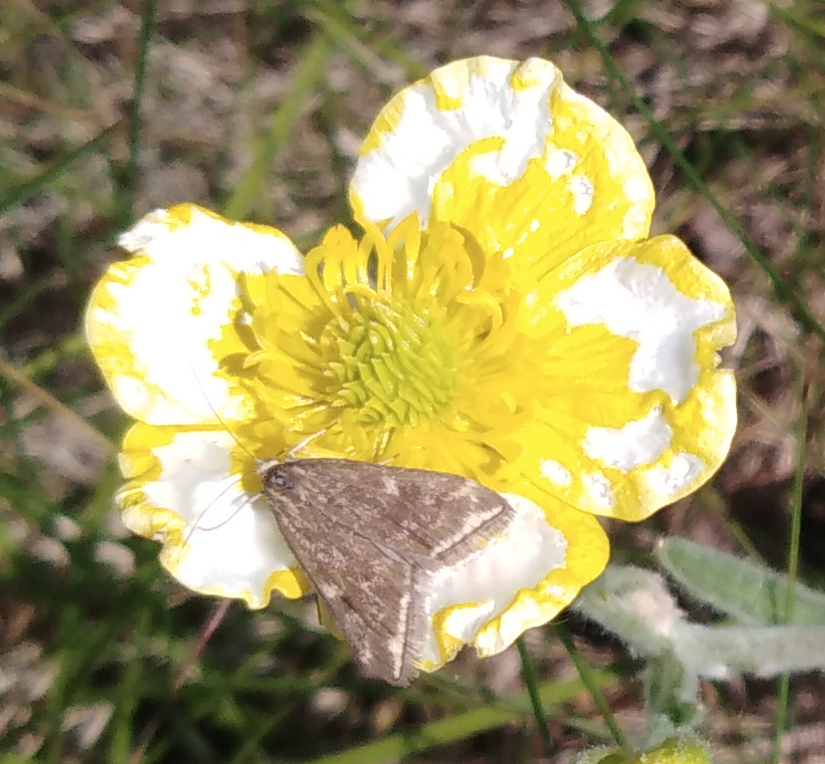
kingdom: Animalia
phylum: Arthropoda
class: Insecta
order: Lepidoptera
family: Crambidae
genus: Loxostege
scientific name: Loxostege sticticalis
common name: Crambid moth
